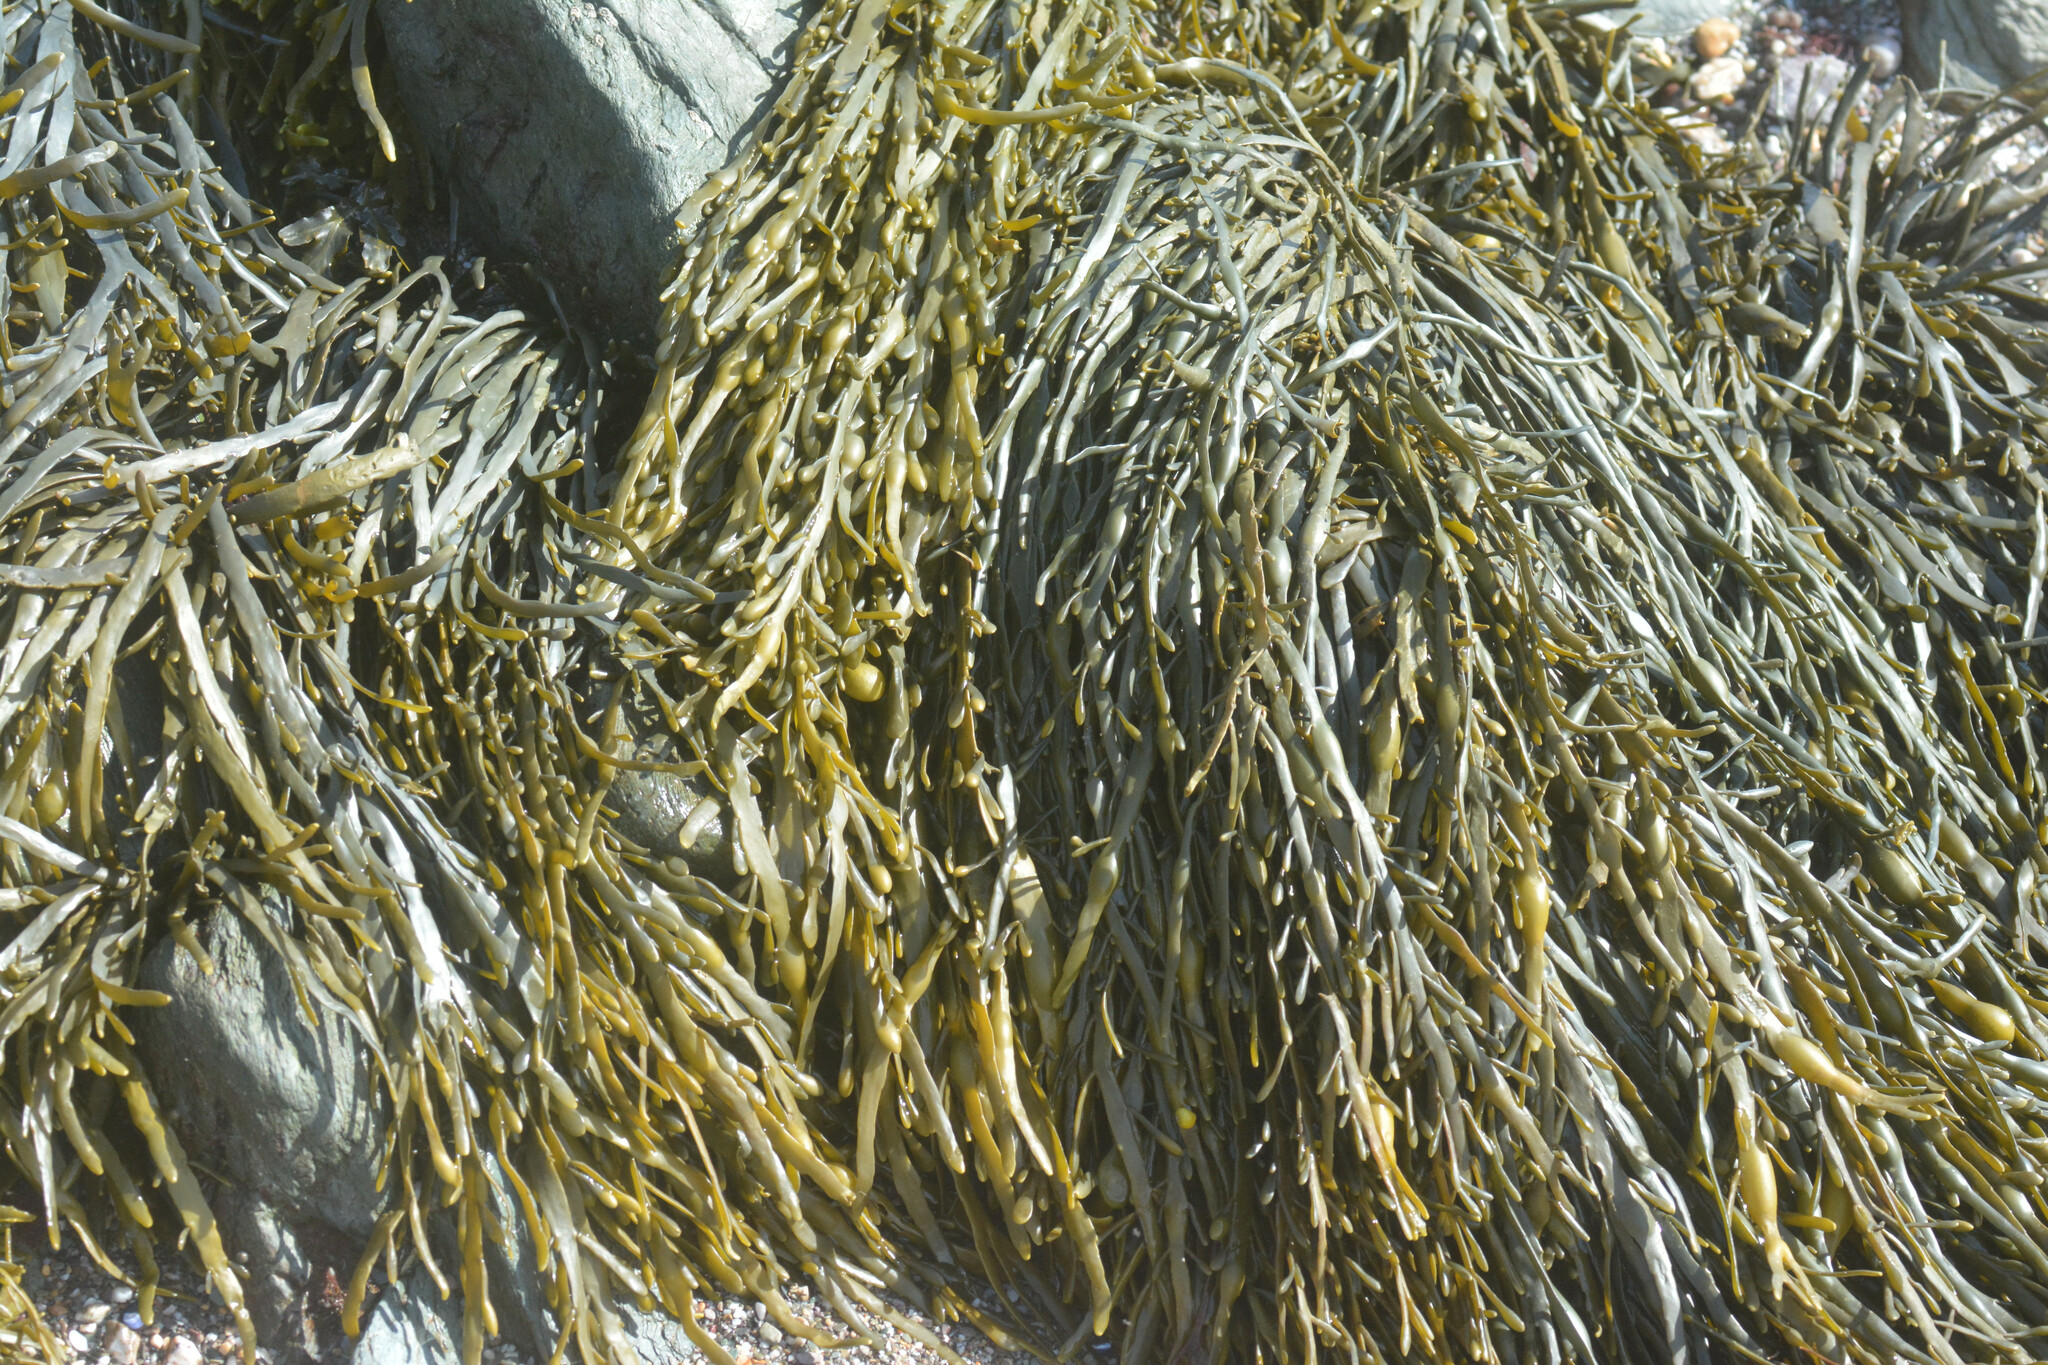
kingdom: Chromista
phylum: Ochrophyta
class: Phaeophyceae
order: Fucales
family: Fucaceae
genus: Ascophyllum
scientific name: Ascophyllum nodosum
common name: Knotted wrack
